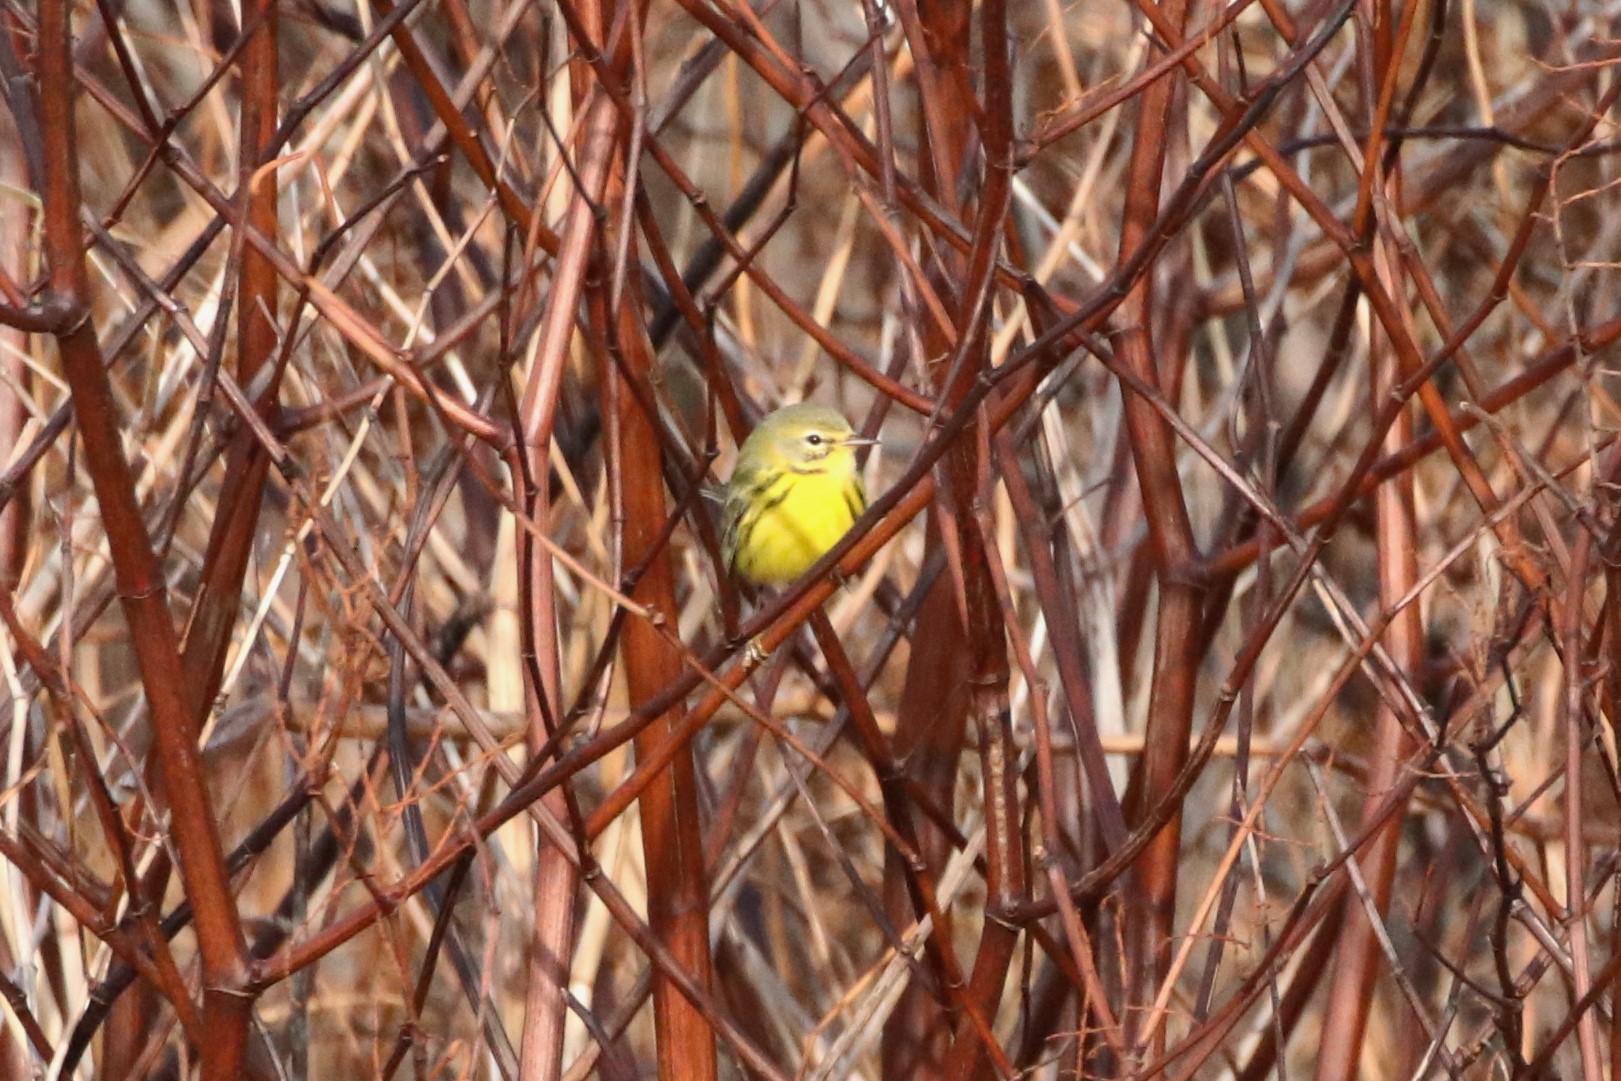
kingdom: Animalia
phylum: Chordata
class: Aves
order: Passeriformes
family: Parulidae
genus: Setophaga
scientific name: Setophaga discolor
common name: Prairie warbler
